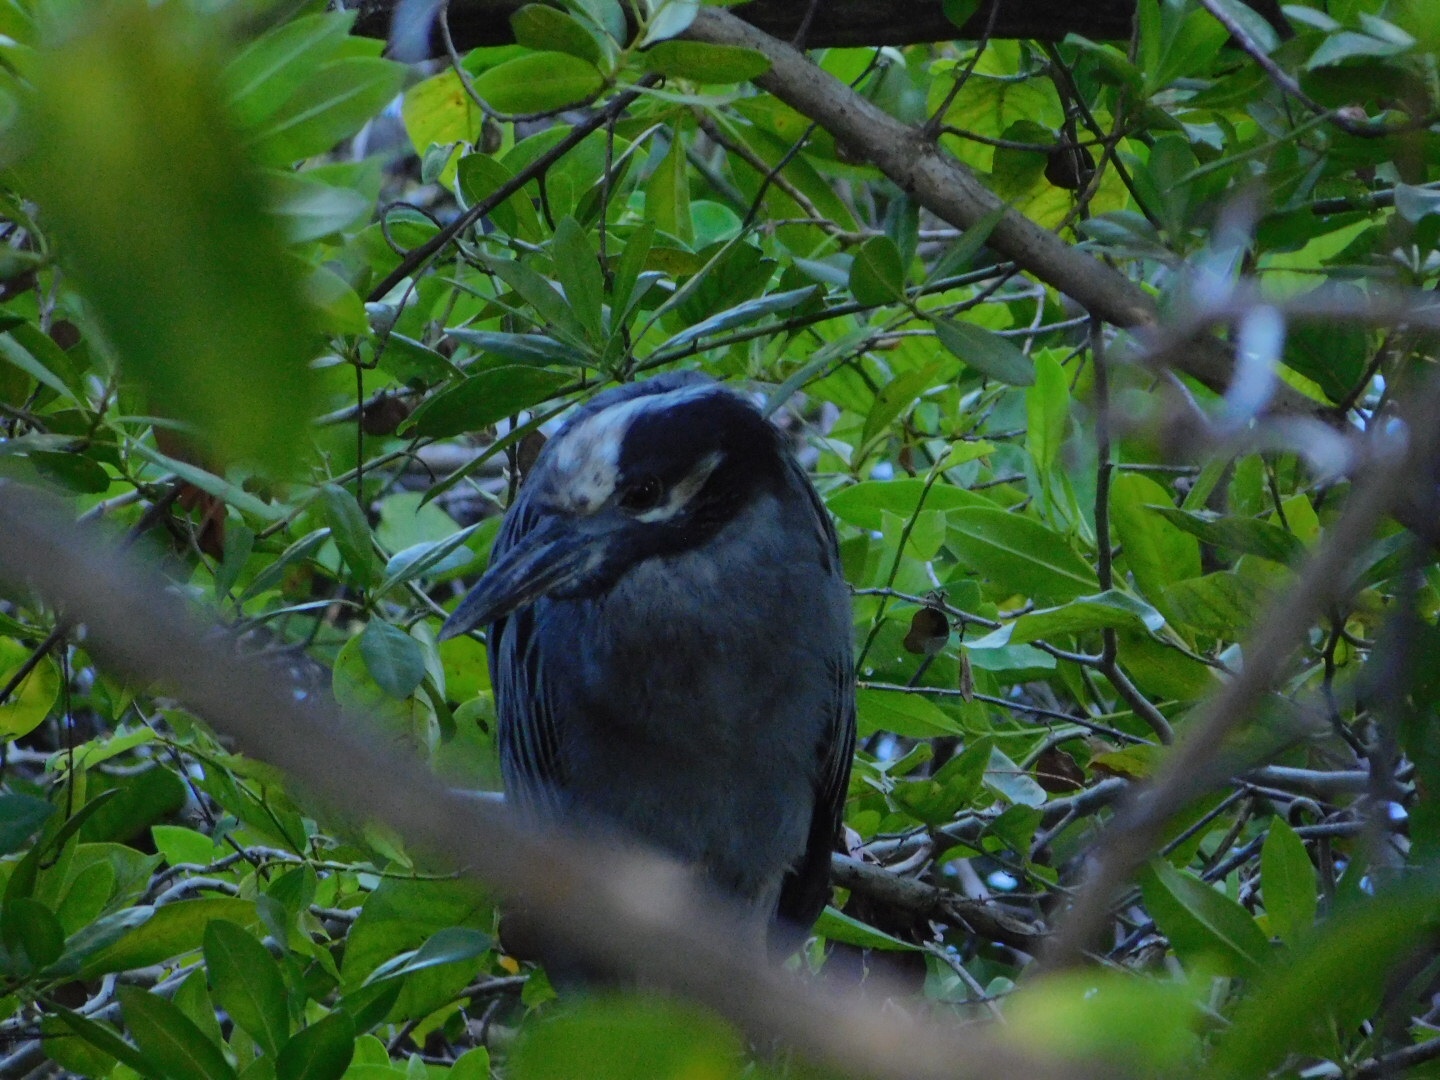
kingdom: Animalia
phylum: Chordata
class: Aves
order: Pelecaniformes
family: Ardeidae
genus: Nyctanassa
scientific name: Nyctanassa violacea
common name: Yellow-crowned night heron
